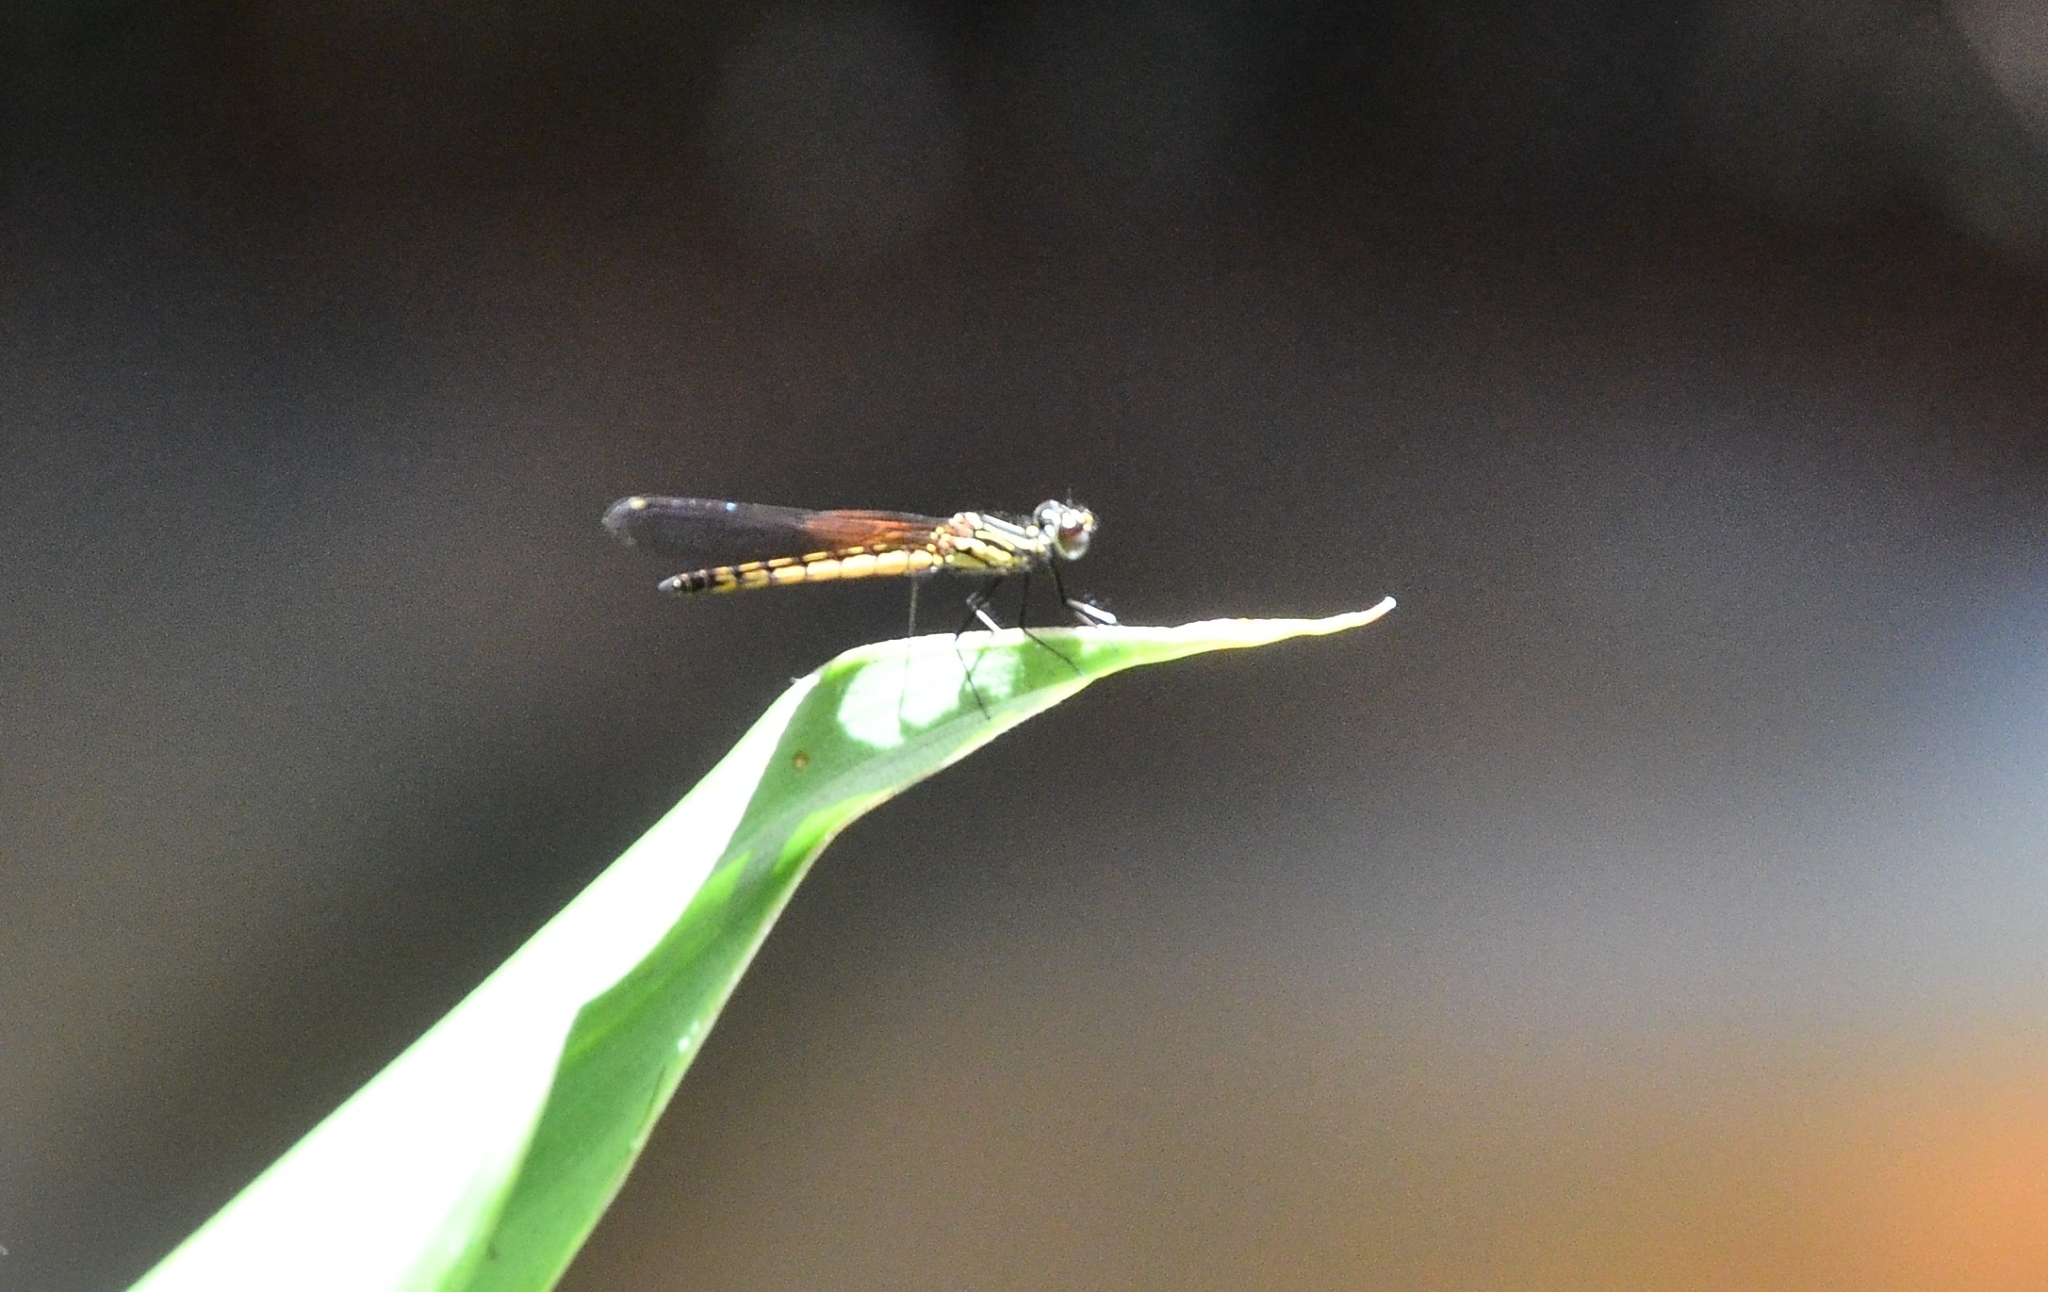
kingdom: Animalia
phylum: Arthropoda
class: Insecta
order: Odonata
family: Chlorocyphidae
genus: Libellago
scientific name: Libellago indica
